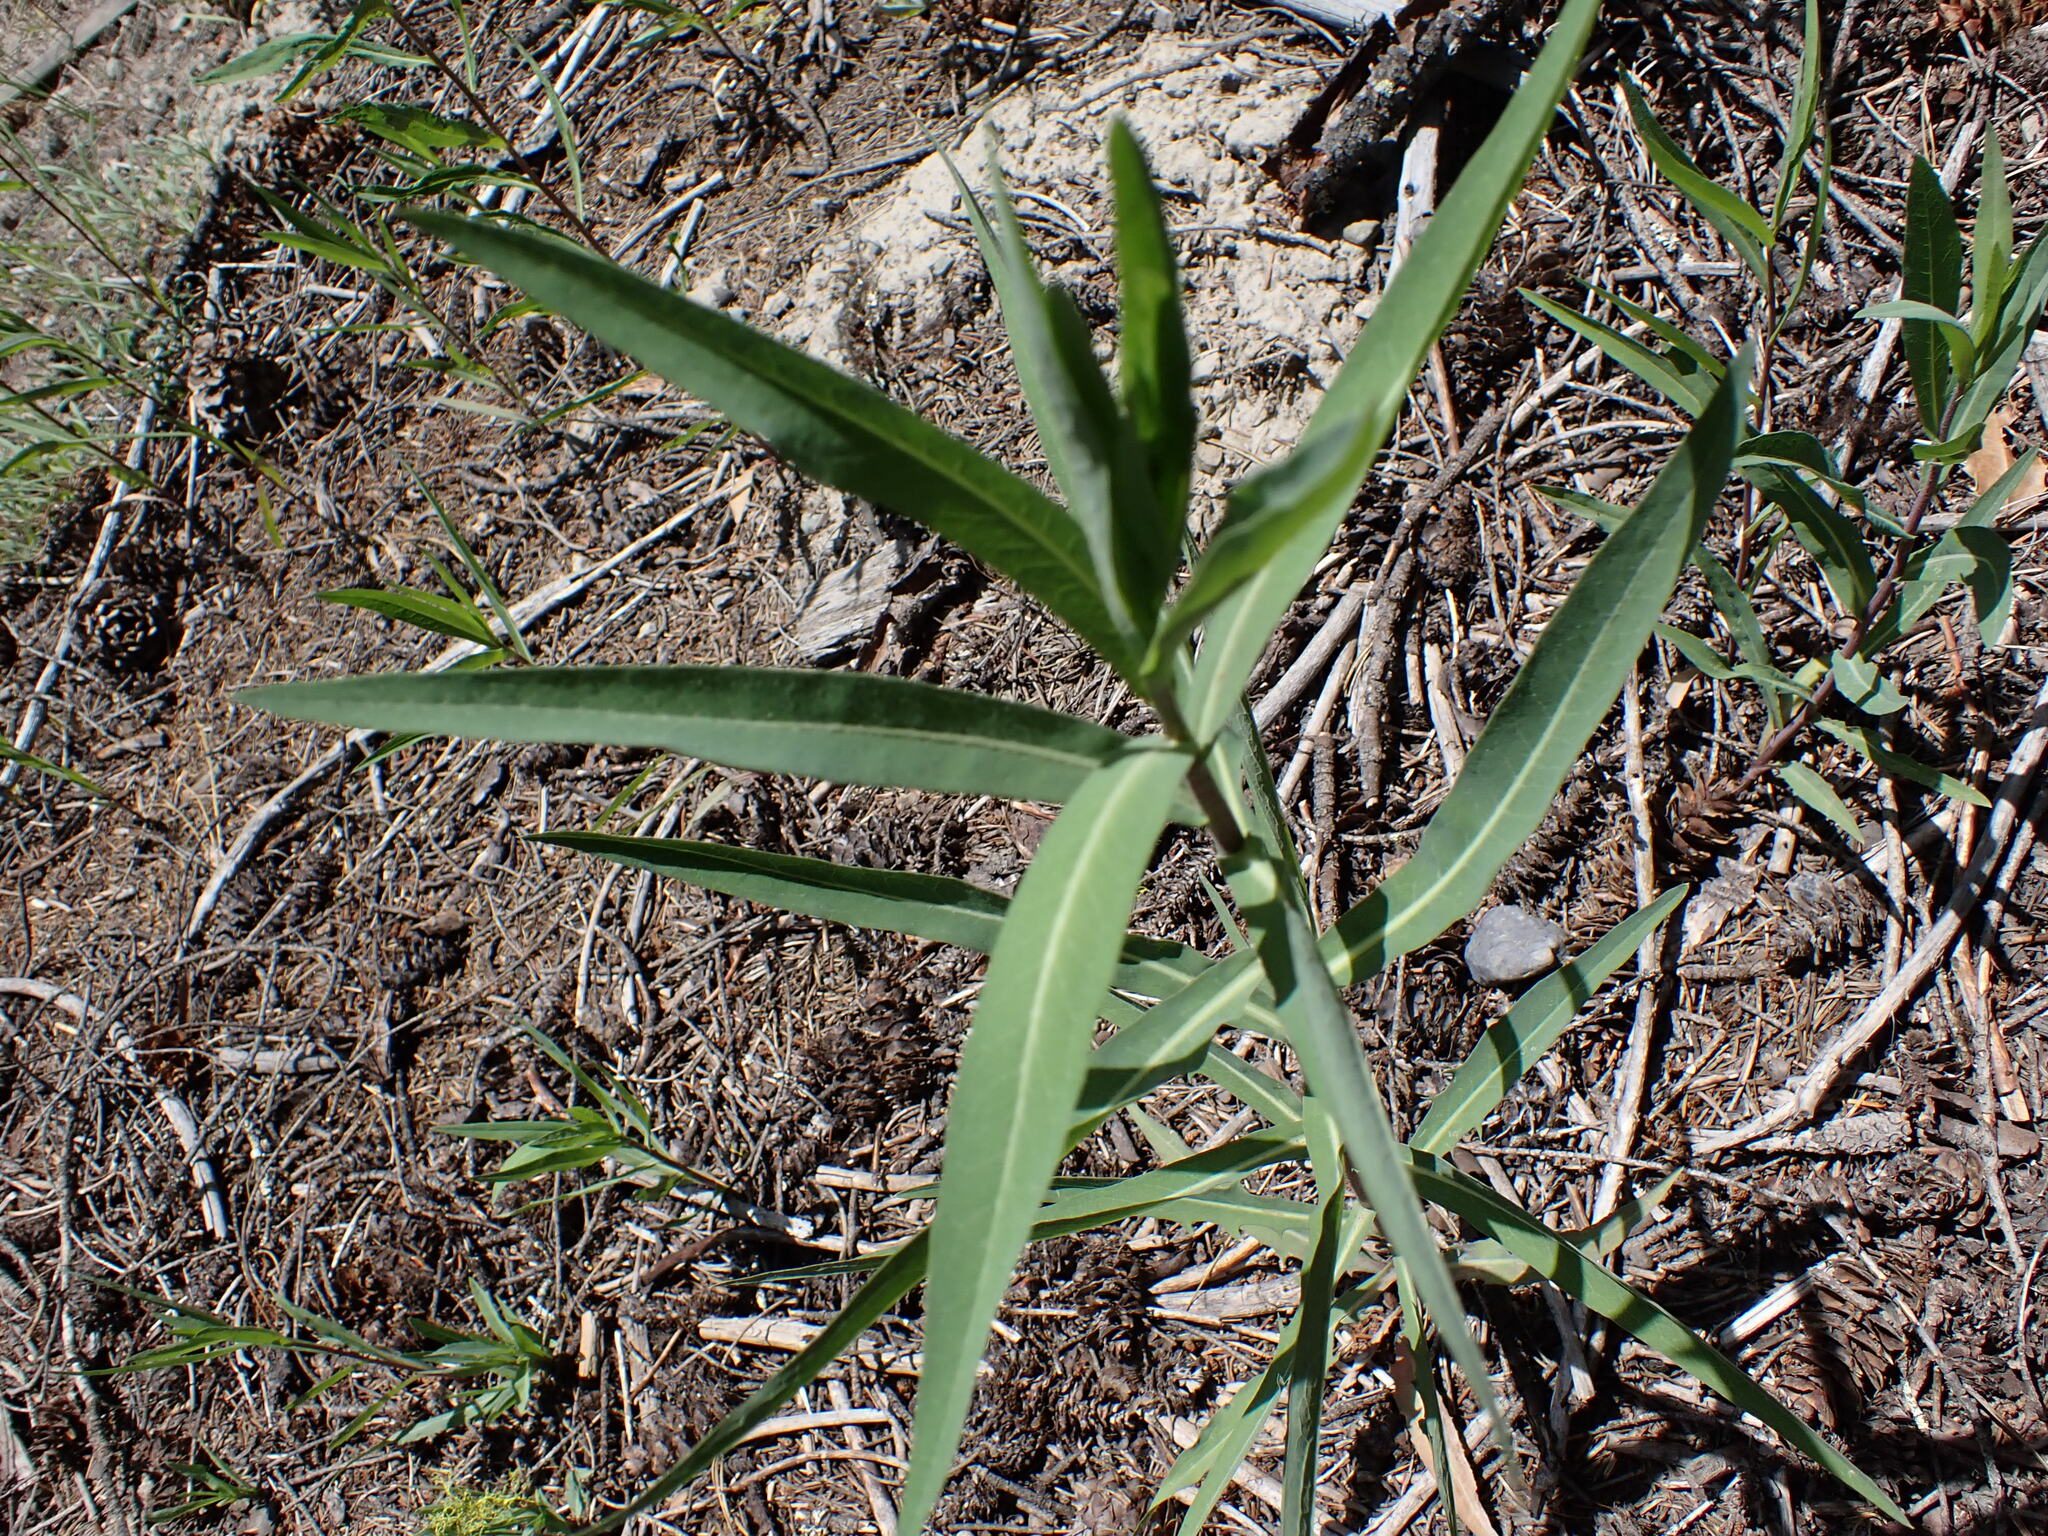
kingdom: Plantae
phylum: Tracheophyta
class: Magnoliopsida
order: Myrtales
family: Onagraceae
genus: Chamaenerion
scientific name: Chamaenerion angustifolium
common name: Fireweed
